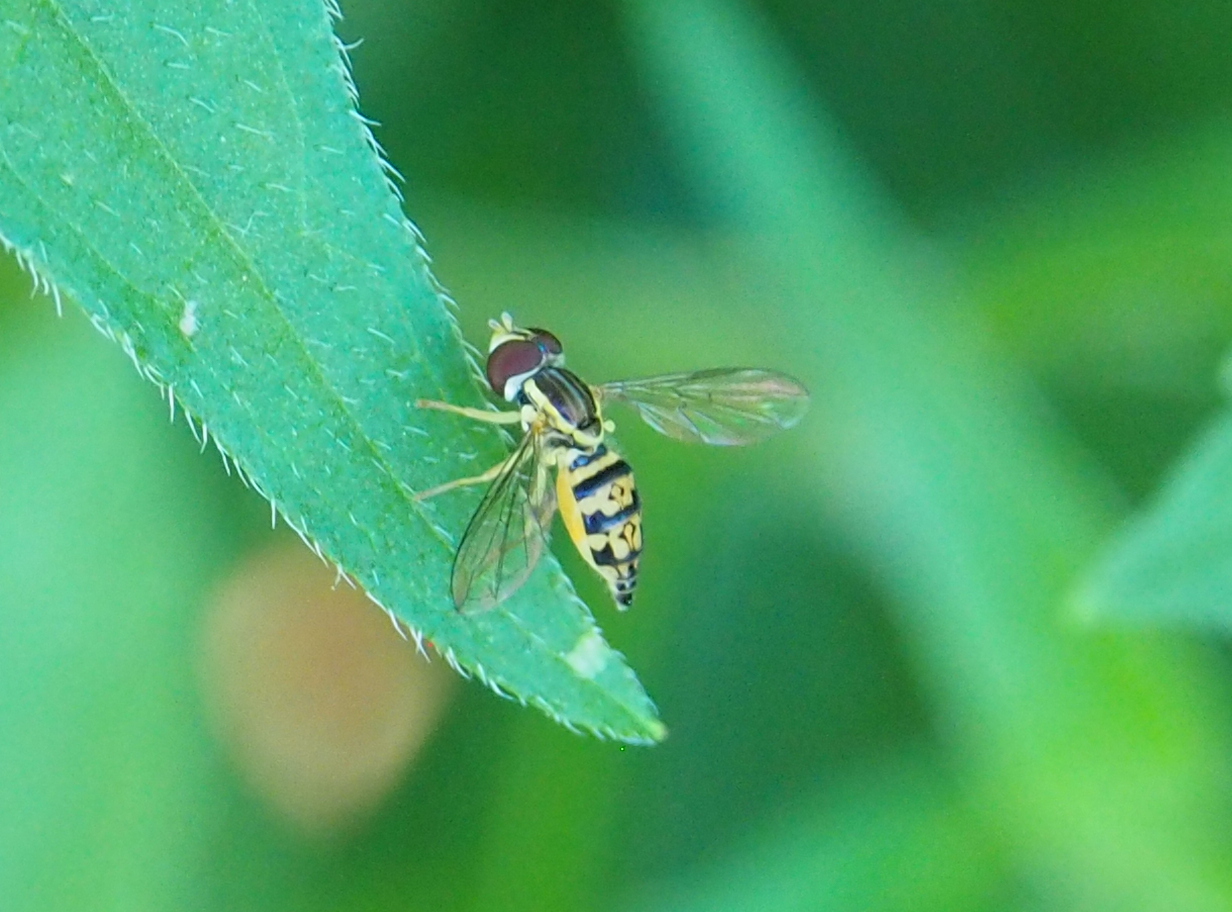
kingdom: Animalia
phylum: Arthropoda
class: Insecta
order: Diptera
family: Syrphidae
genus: Toxomerus
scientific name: Toxomerus geminatus
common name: Eastern calligrapher
